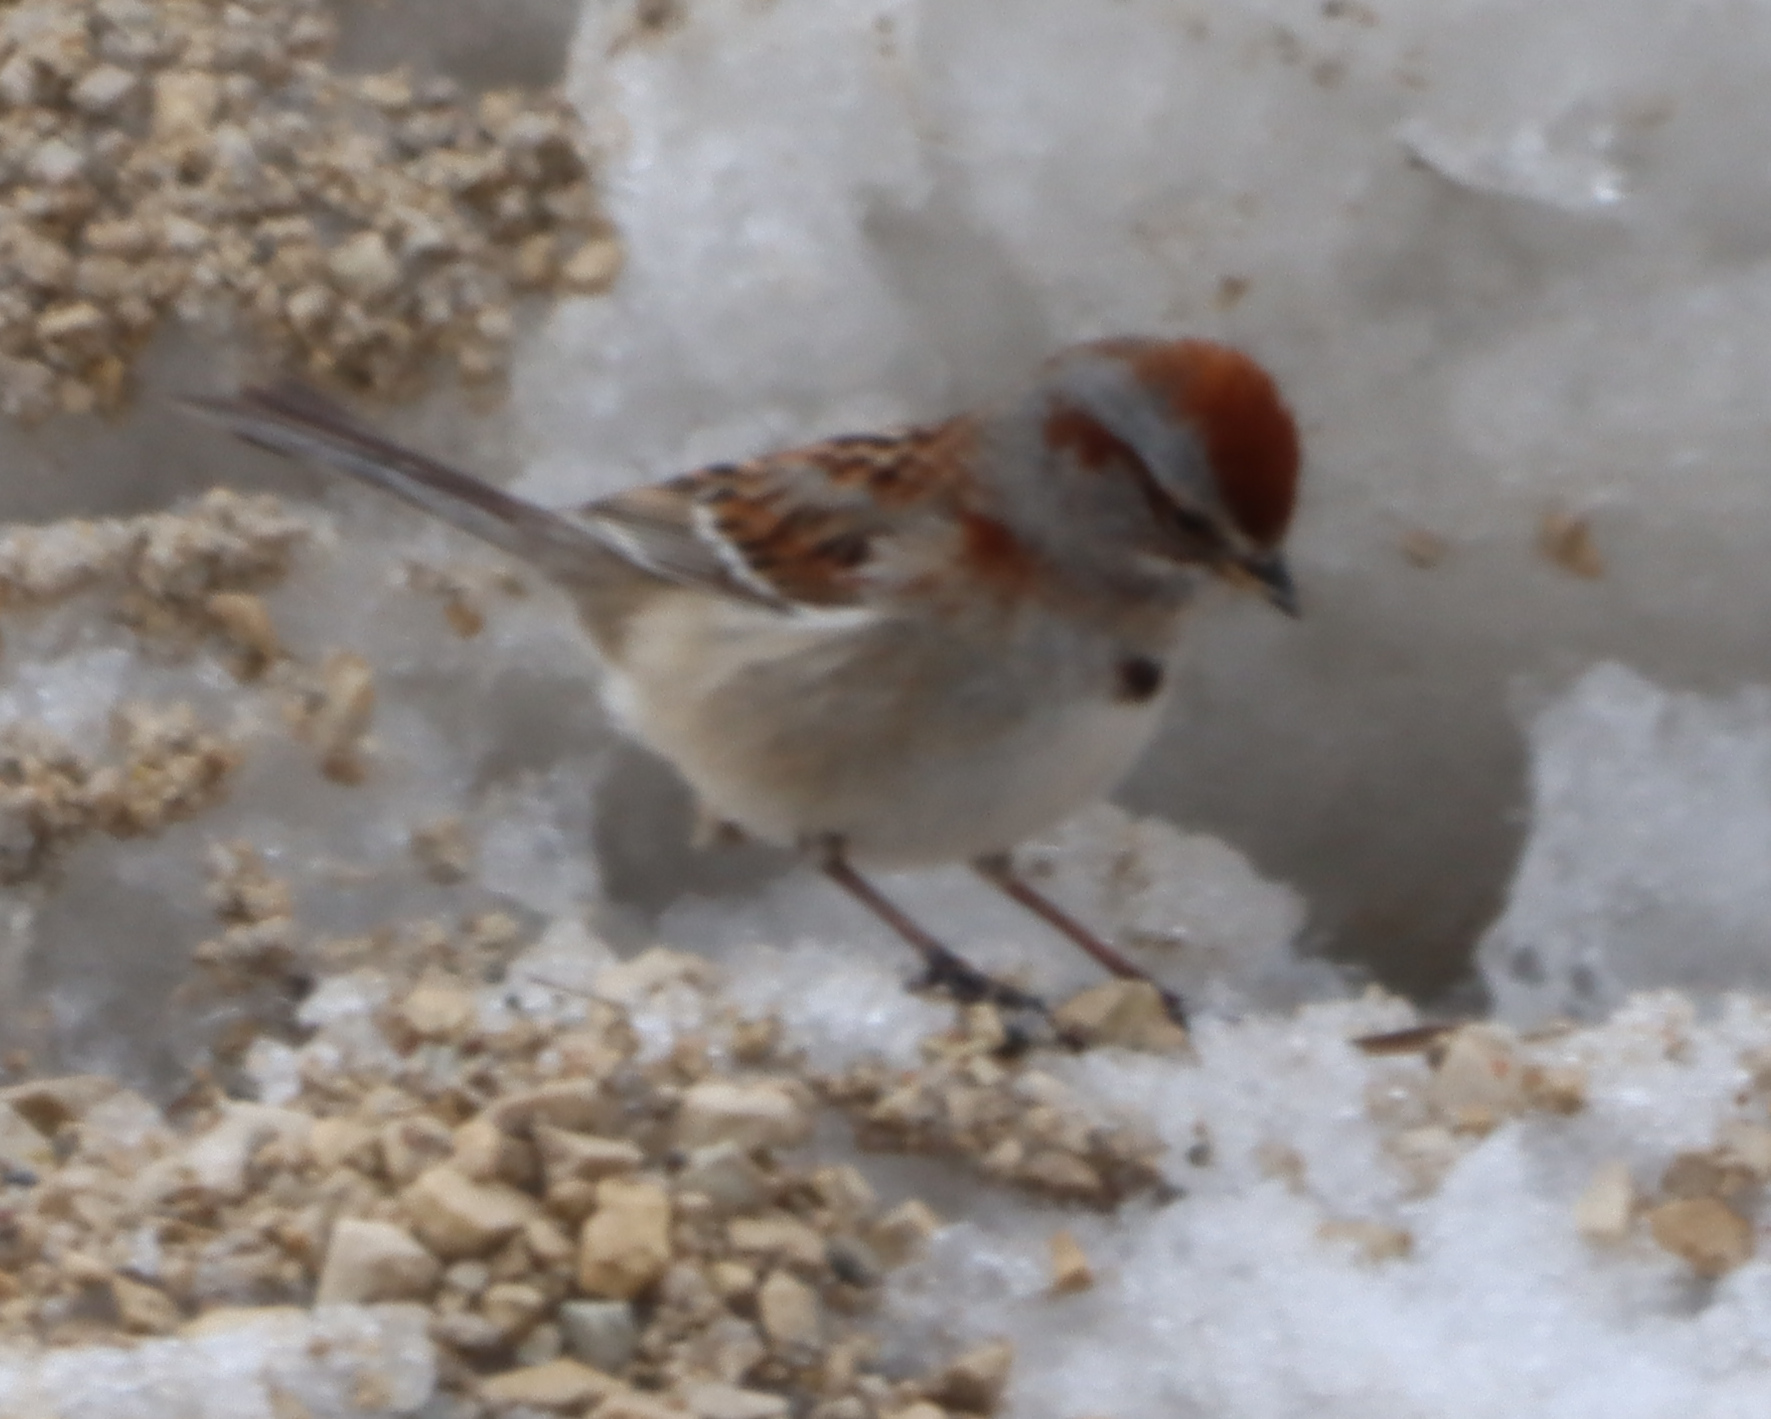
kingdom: Animalia
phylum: Chordata
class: Aves
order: Passeriformes
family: Passerellidae
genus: Spizelloides
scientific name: Spizelloides arborea
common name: American tree sparrow
